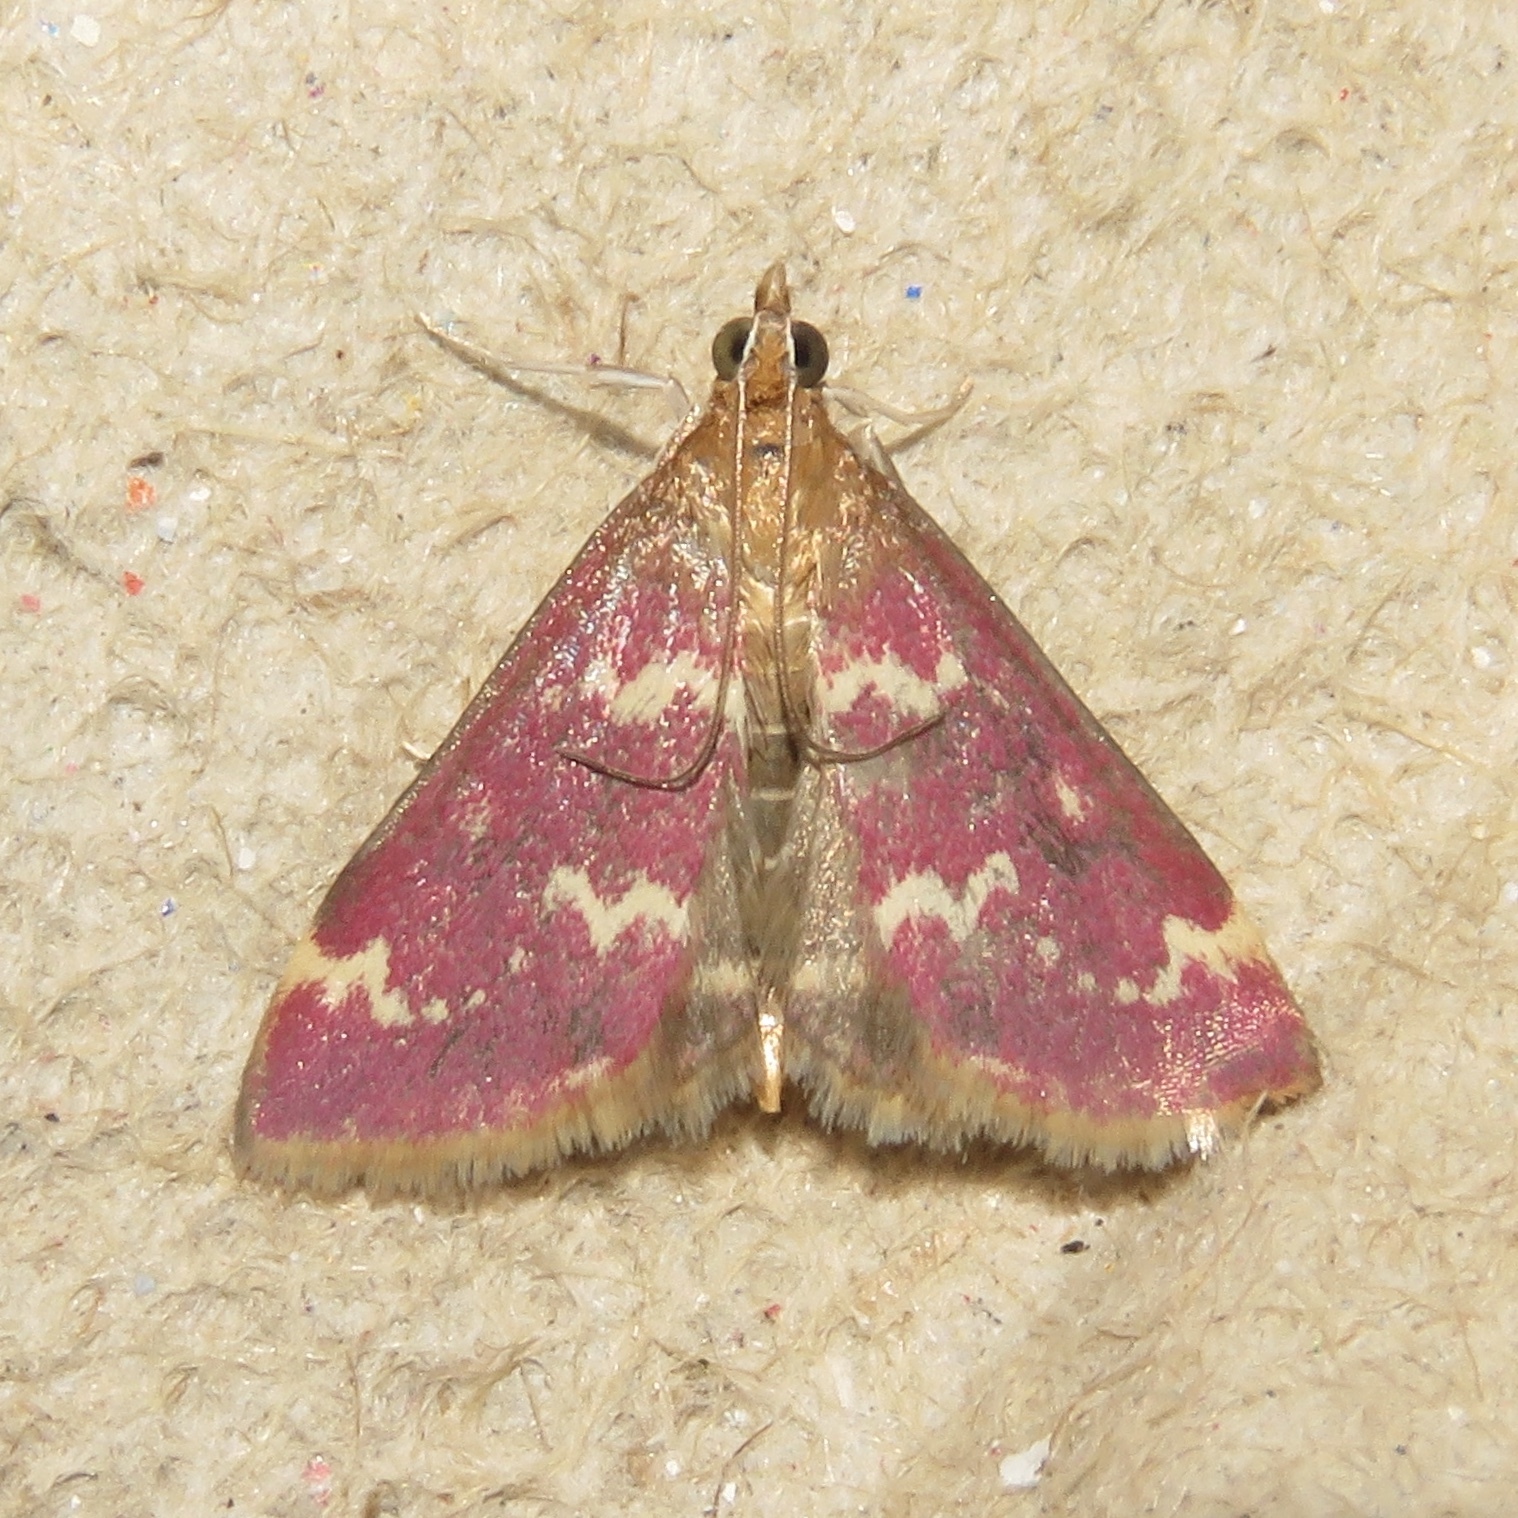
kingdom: Animalia
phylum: Arthropoda
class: Insecta
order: Lepidoptera
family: Crambidae
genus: Pyrausta
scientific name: Pyrausta signatalis
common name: Raspberry pyrausta moth
